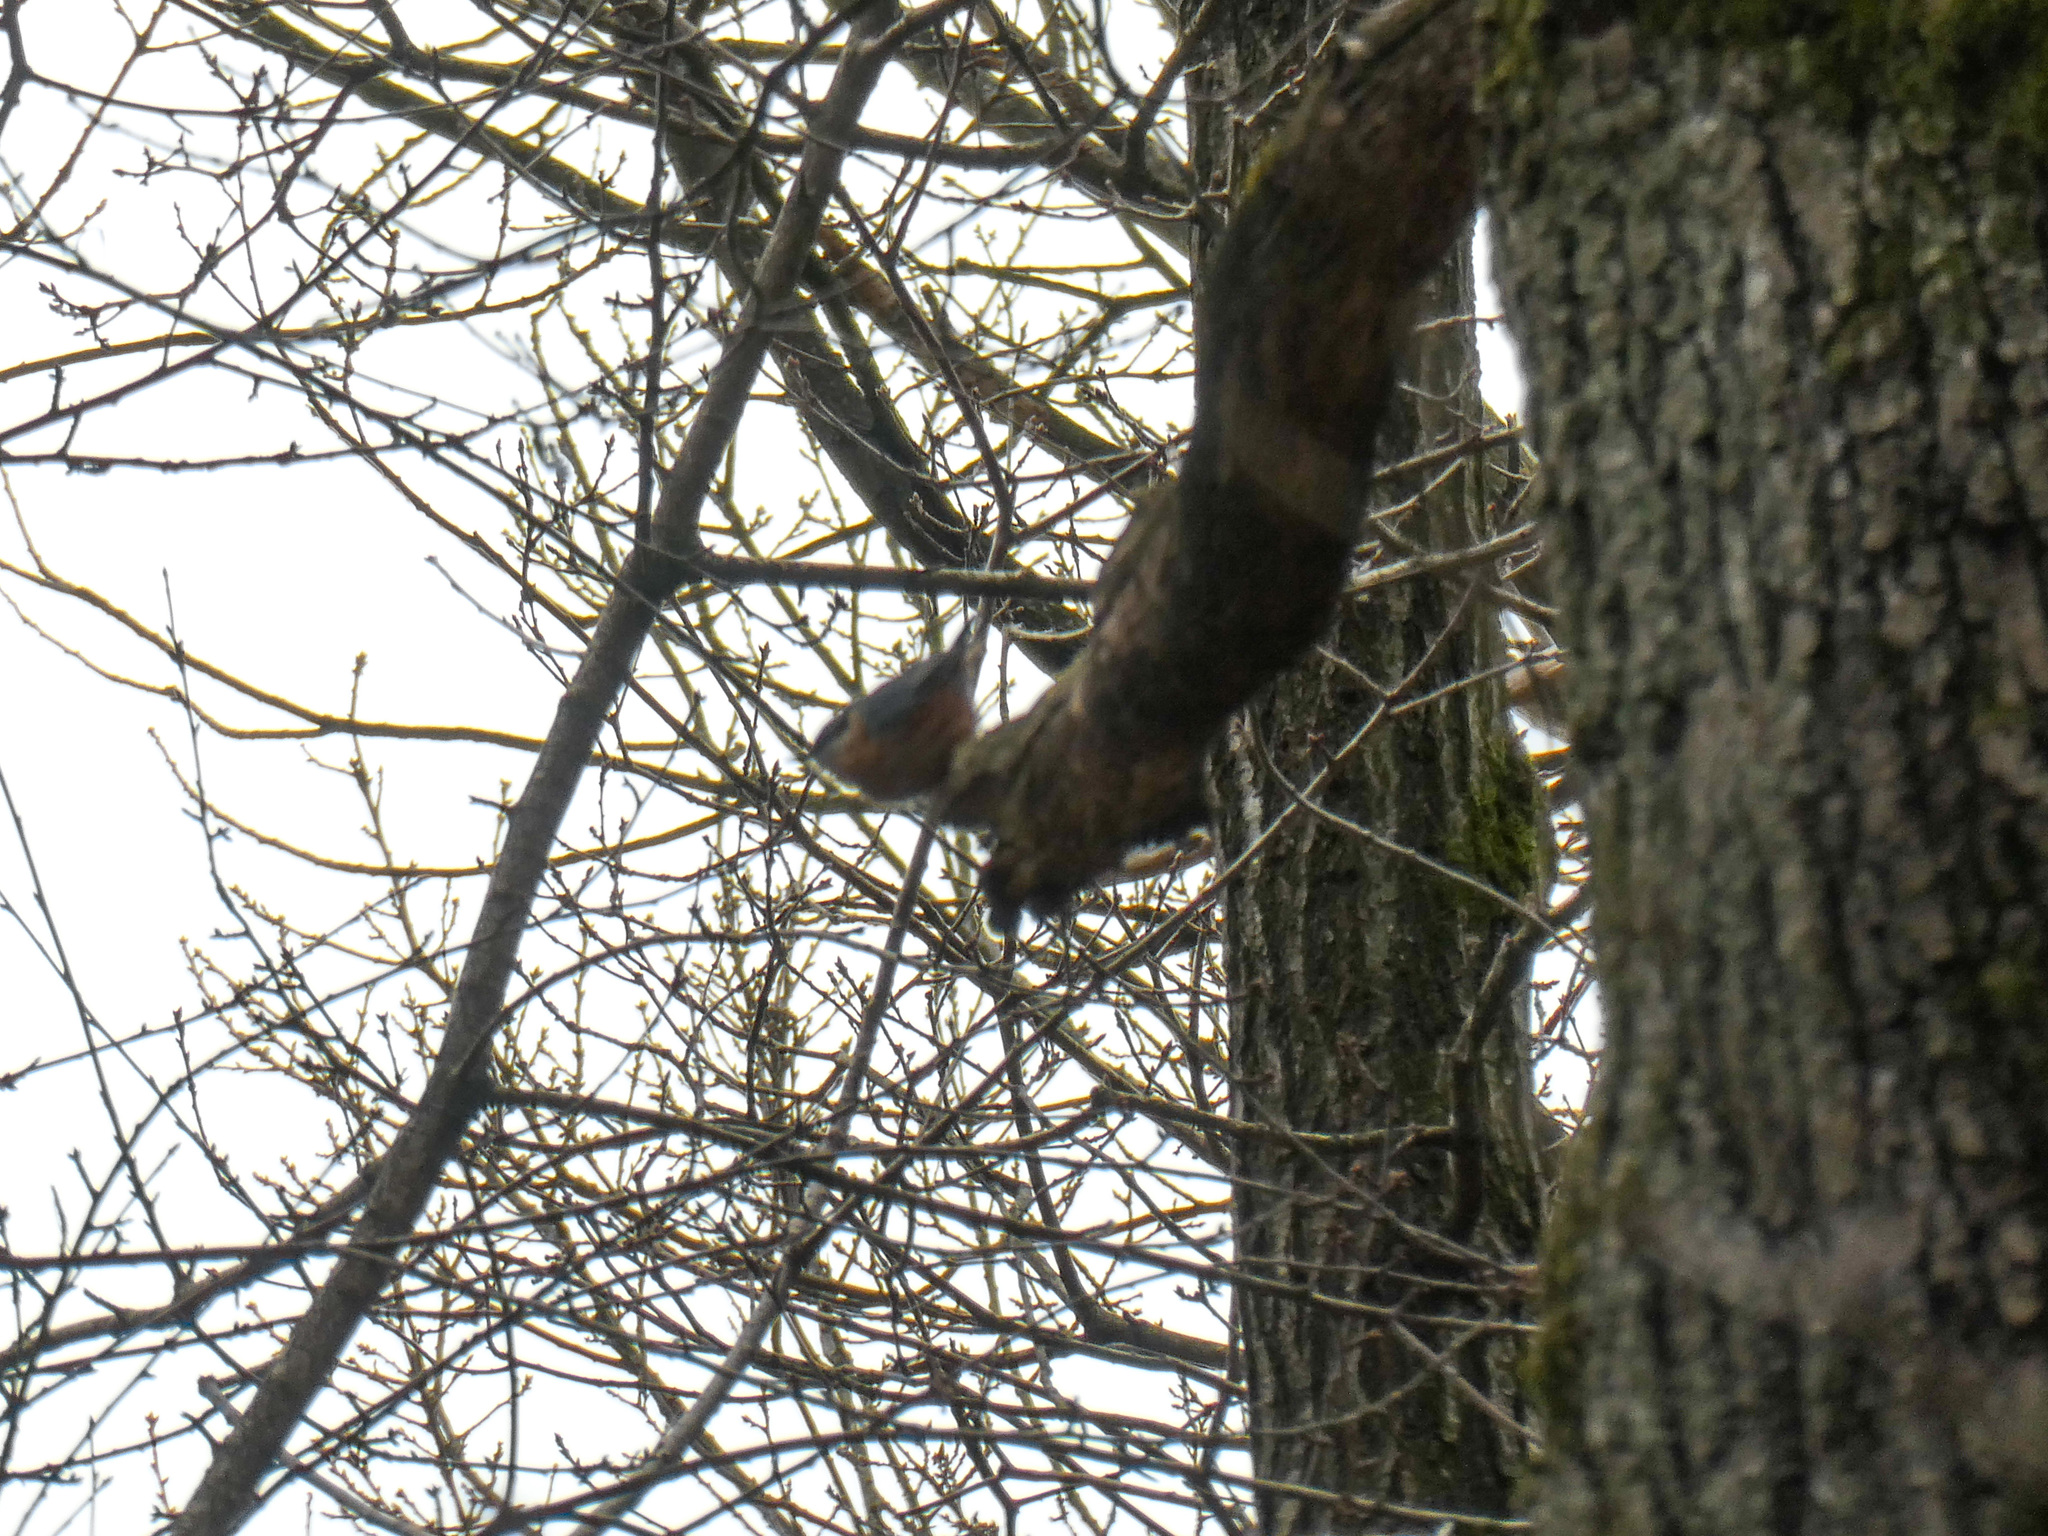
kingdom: Animalia
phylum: Chordata
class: Aves
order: Passeriformes
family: Sittidae
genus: Sitta
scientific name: Sitta europaea
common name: Eurasian nuthatch
